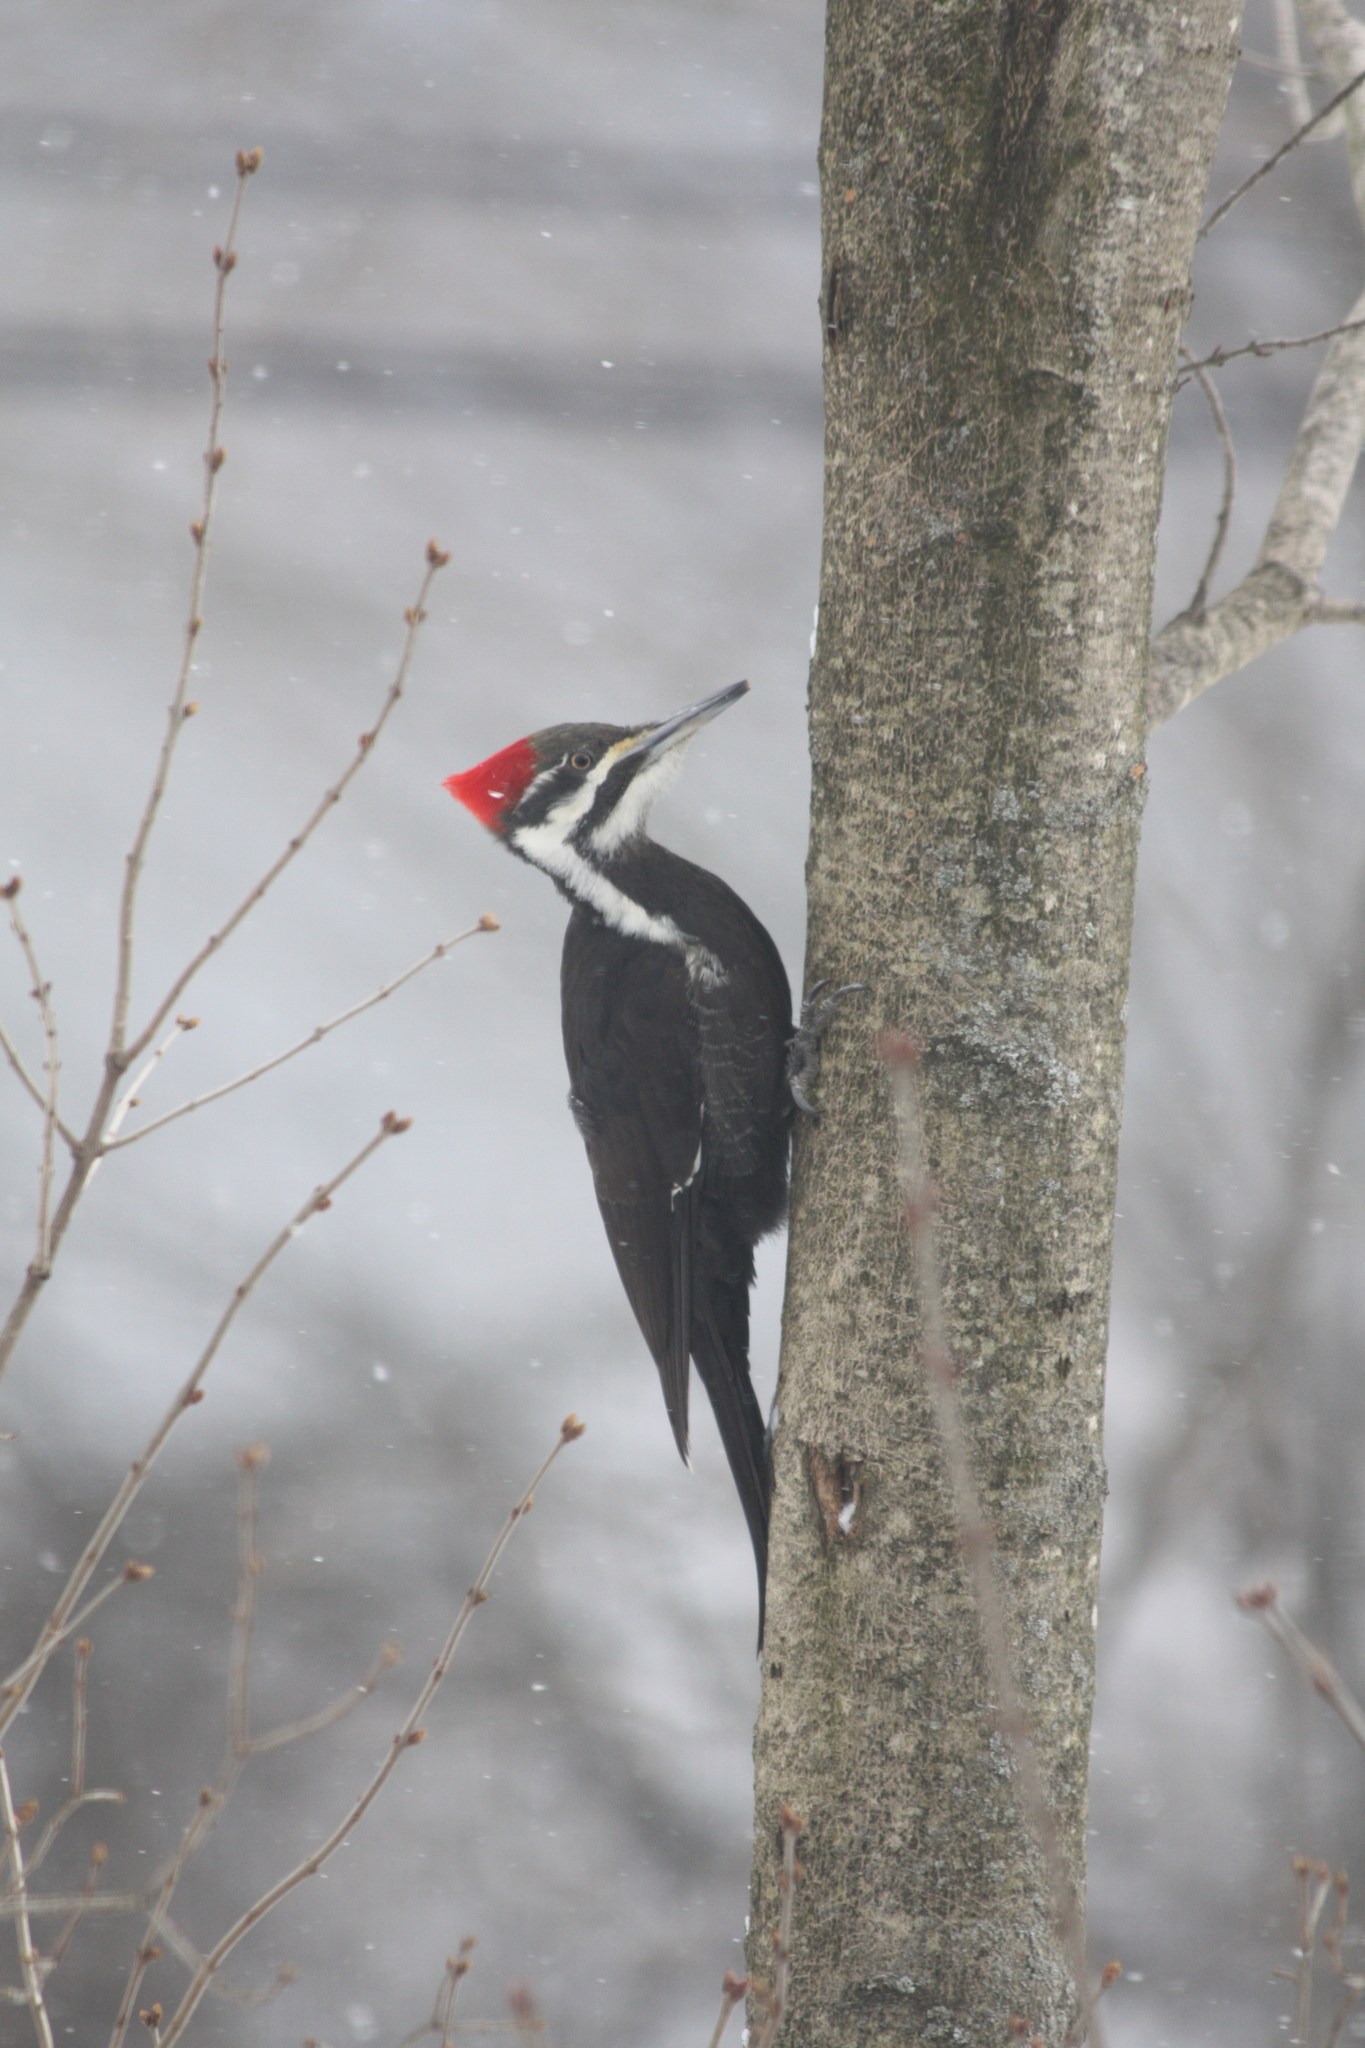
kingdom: Animalia
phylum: Chordata
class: Aves
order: Piciformes
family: Picidae
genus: Dryocopus
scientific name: Dryocopus pileatus
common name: Pileated woodpecker
